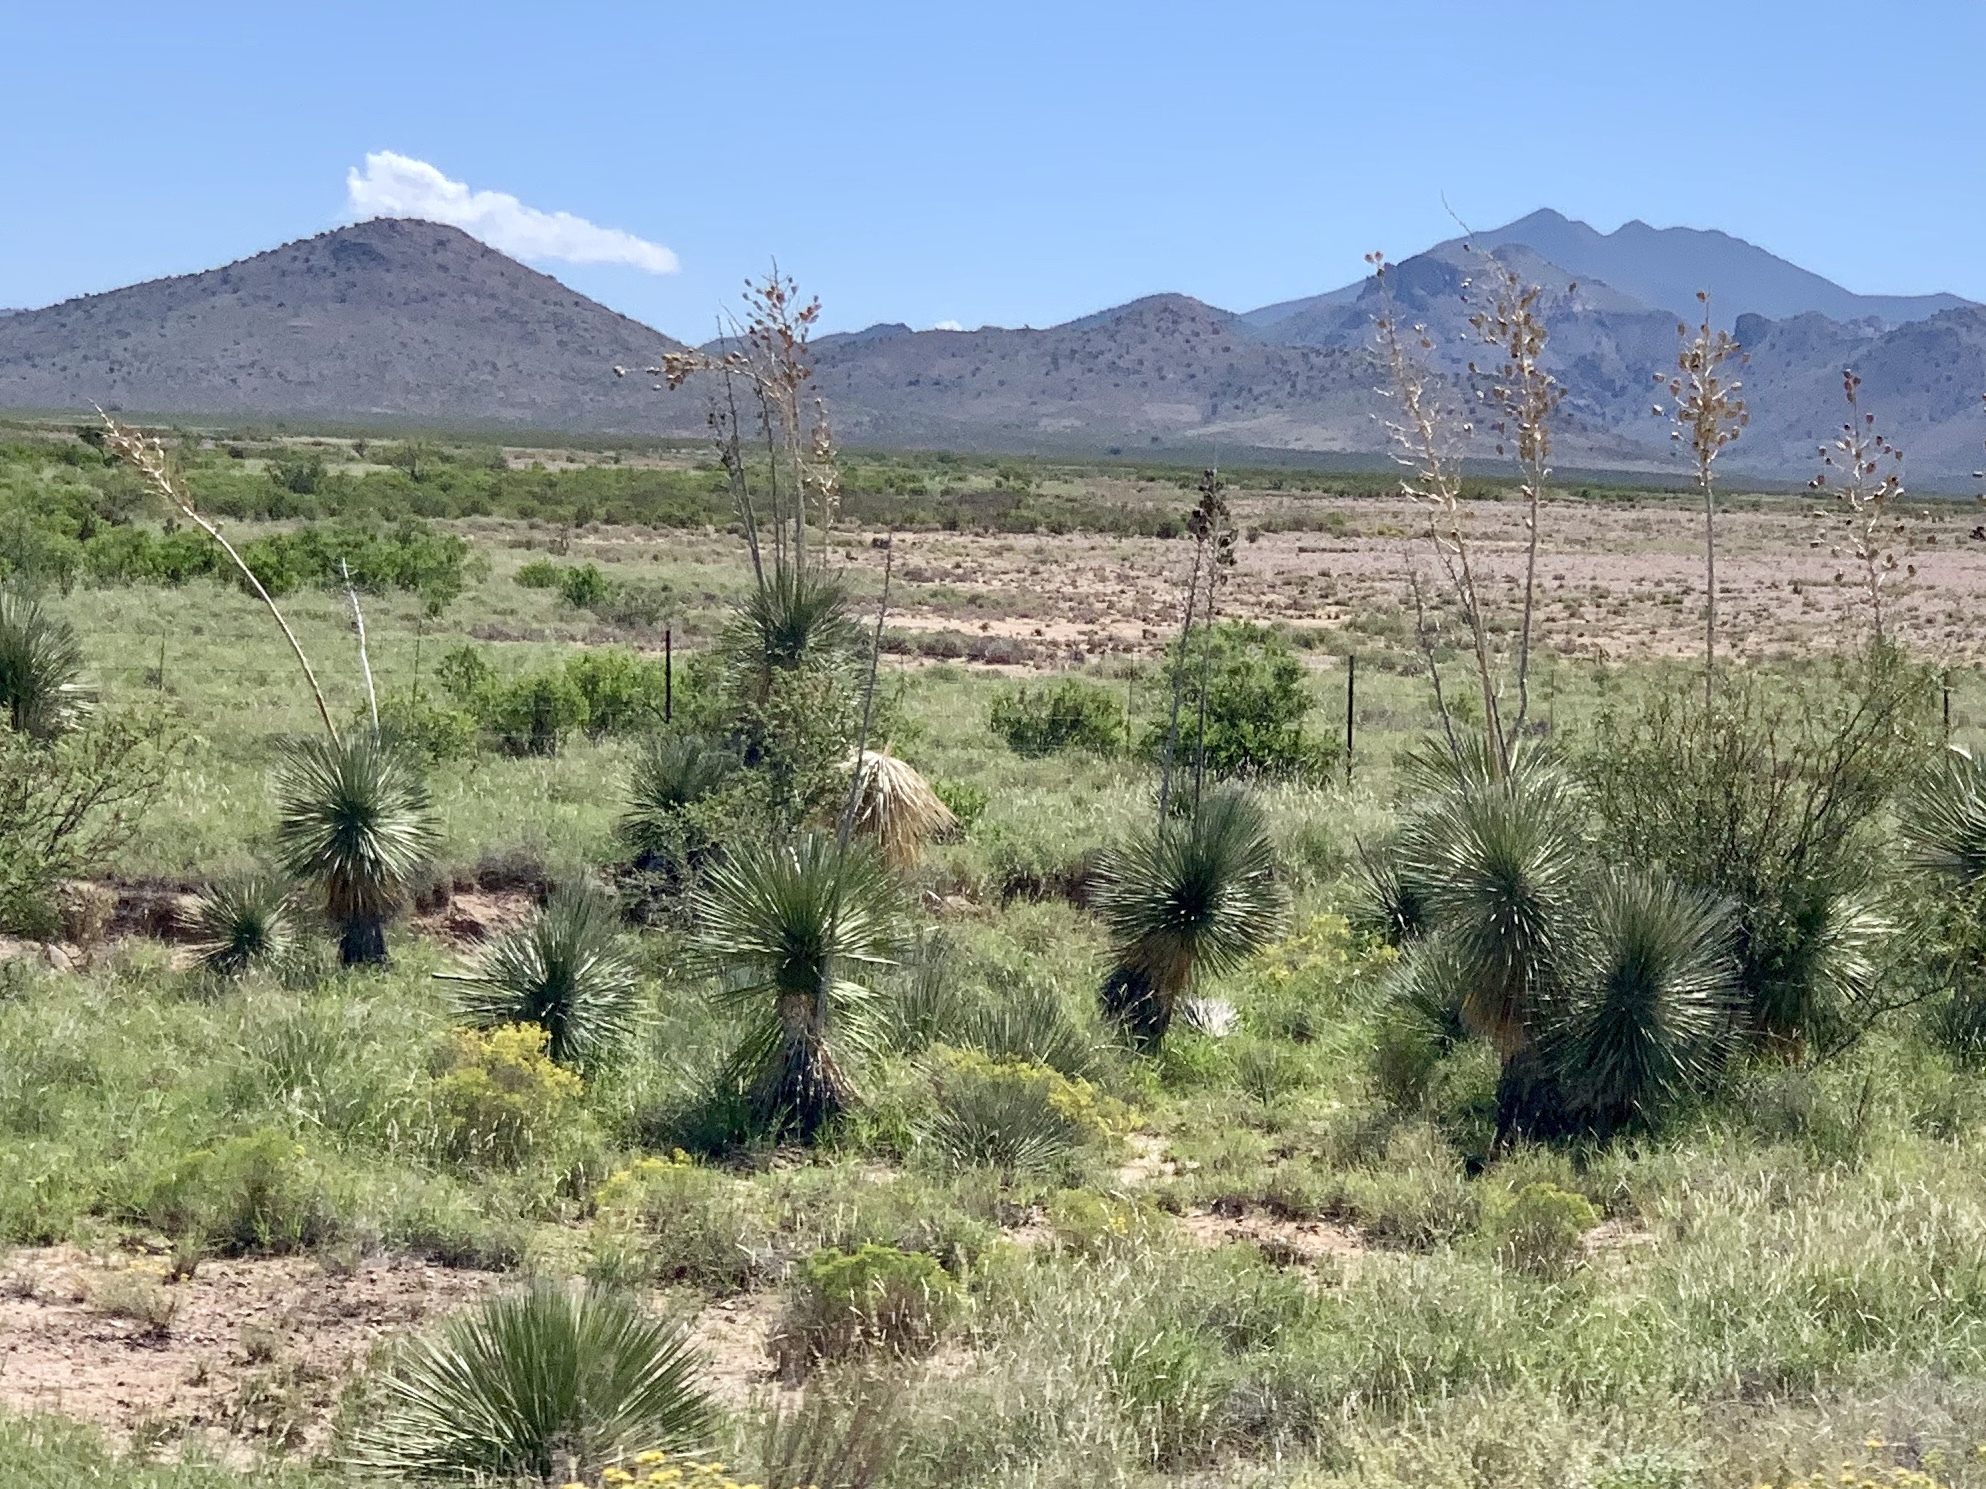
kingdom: Plantae
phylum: Tracheophyta
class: Liliopsida
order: Asparagales
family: Asparagaceae
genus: Yucca
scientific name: Yucca elata
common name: Palmella
